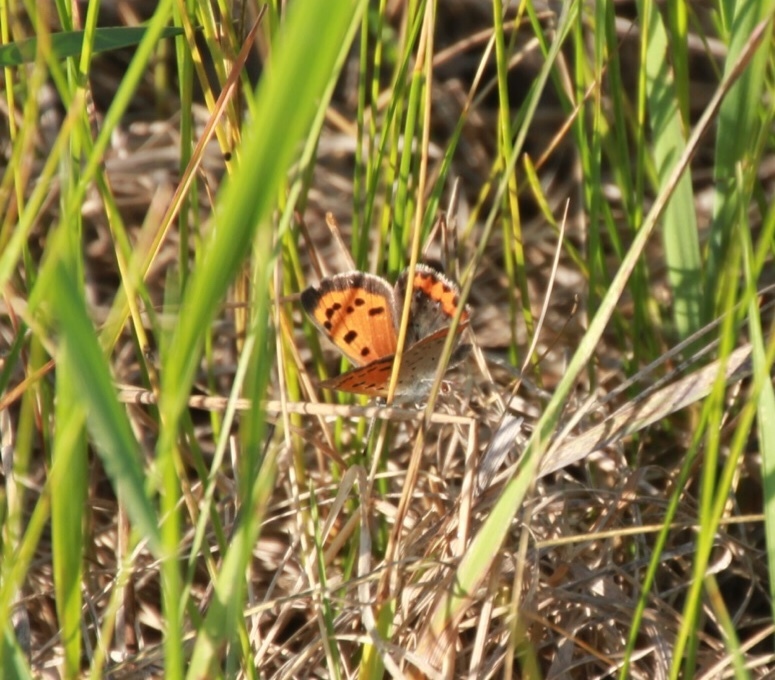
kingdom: Animalia
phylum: Arthropoda
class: Insecta
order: Lepidoptera
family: Lycaenidae
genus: Lycaena
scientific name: Lycaena hypophlaeas
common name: American copper
